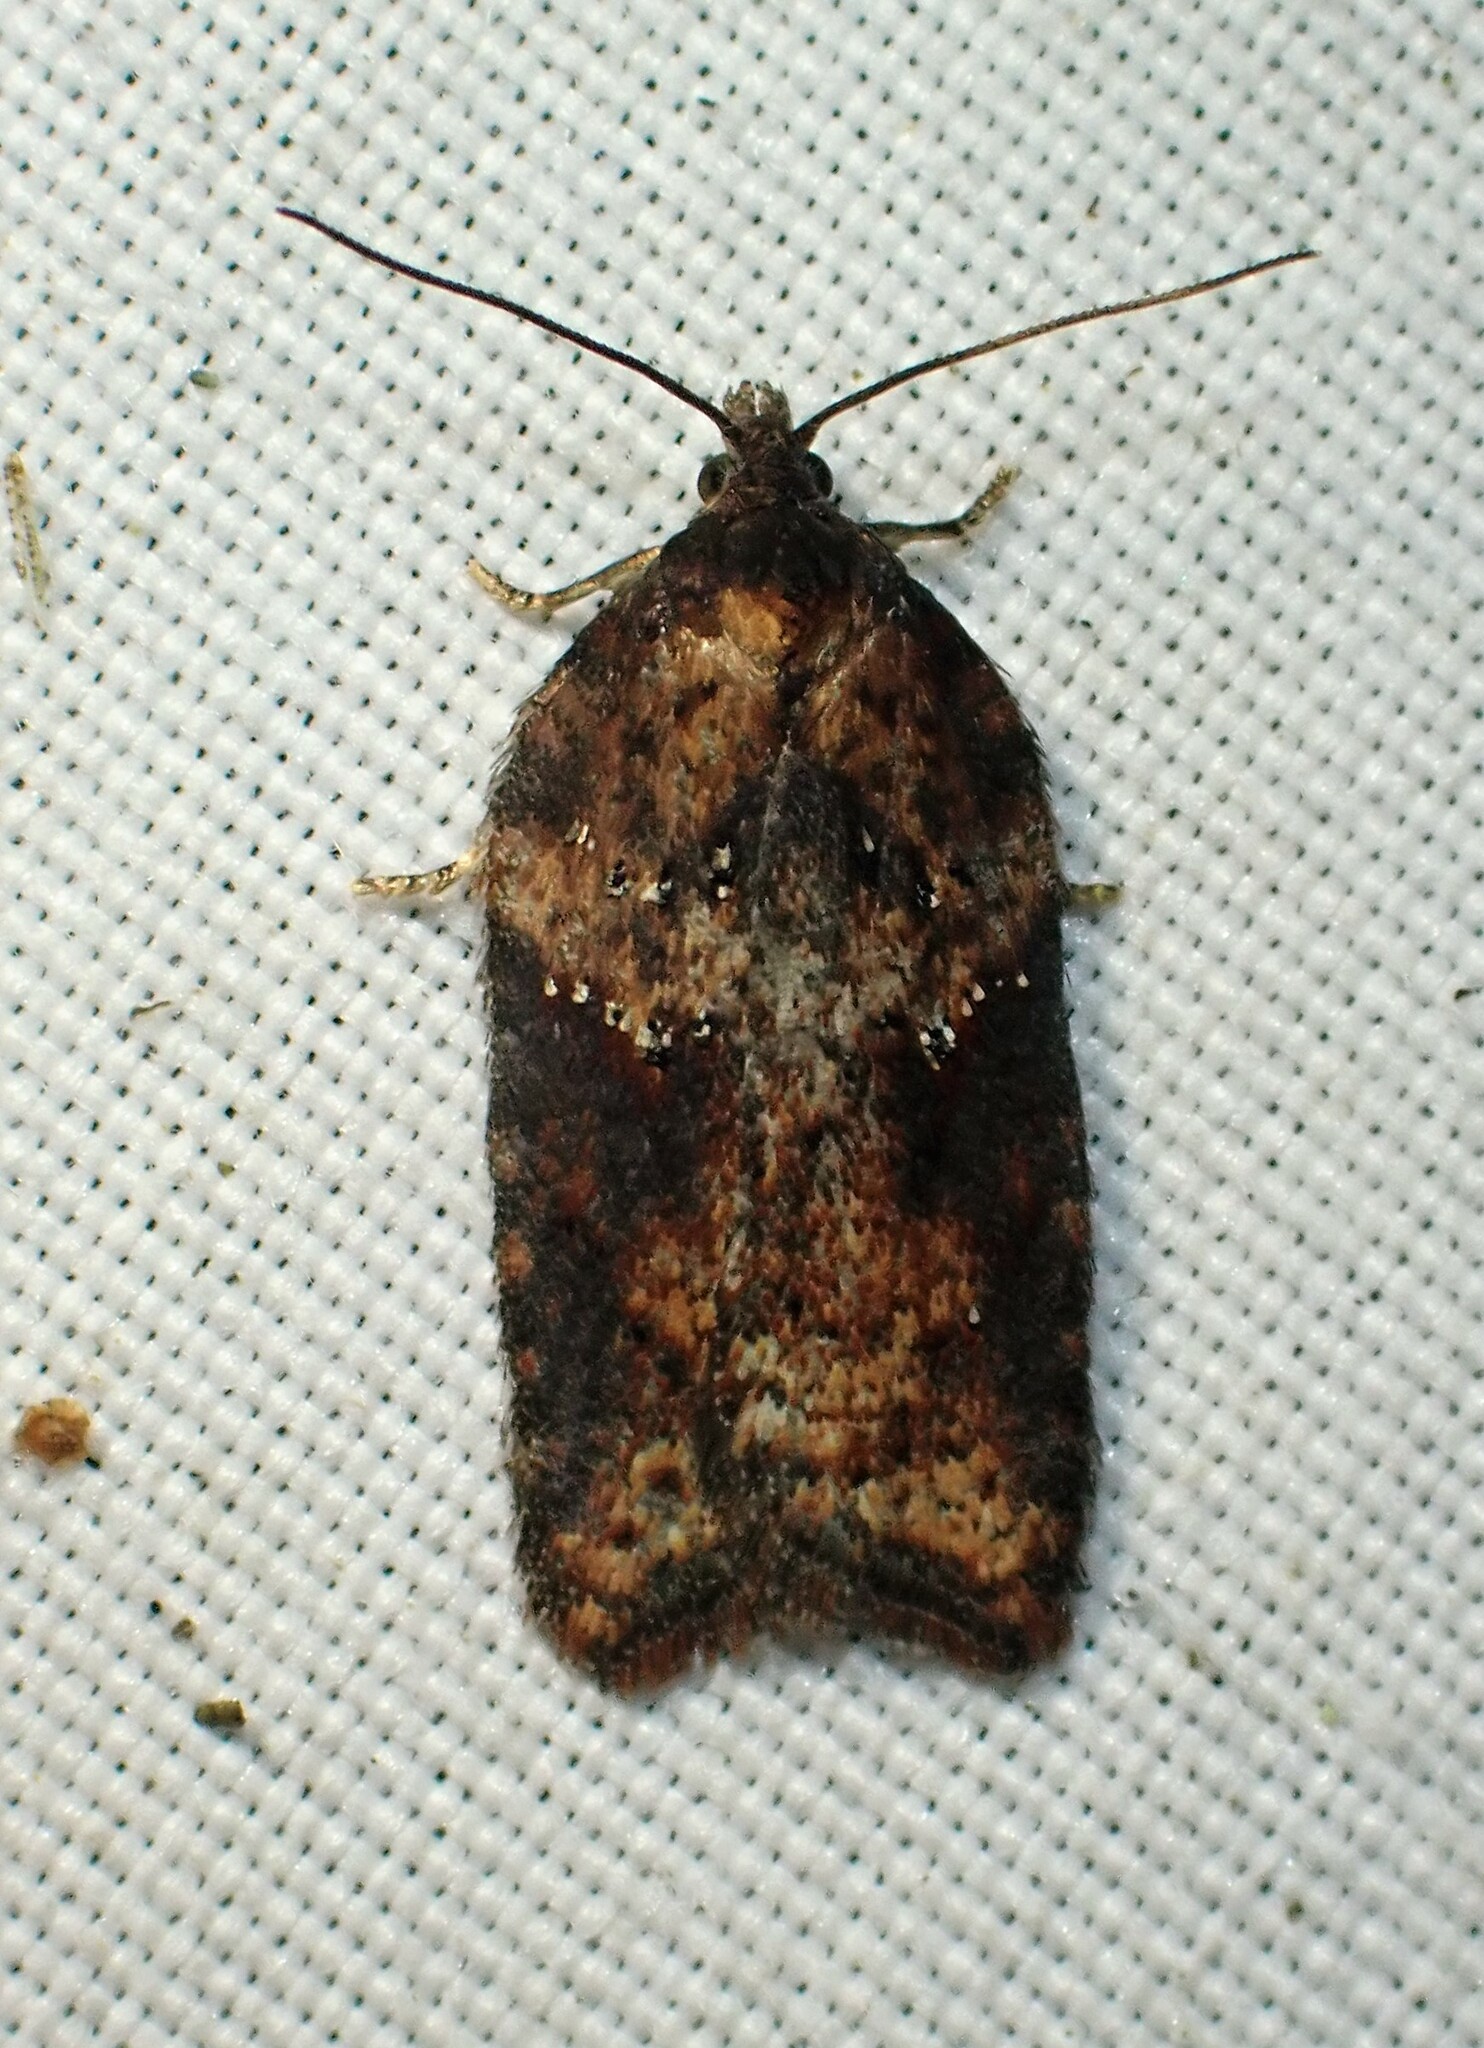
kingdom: Animalia
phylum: Arthropoda
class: Insecta
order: Lepidoptera
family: Tortricidae
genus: Acleris
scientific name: Acleris schalleriana
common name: Viburnum button
